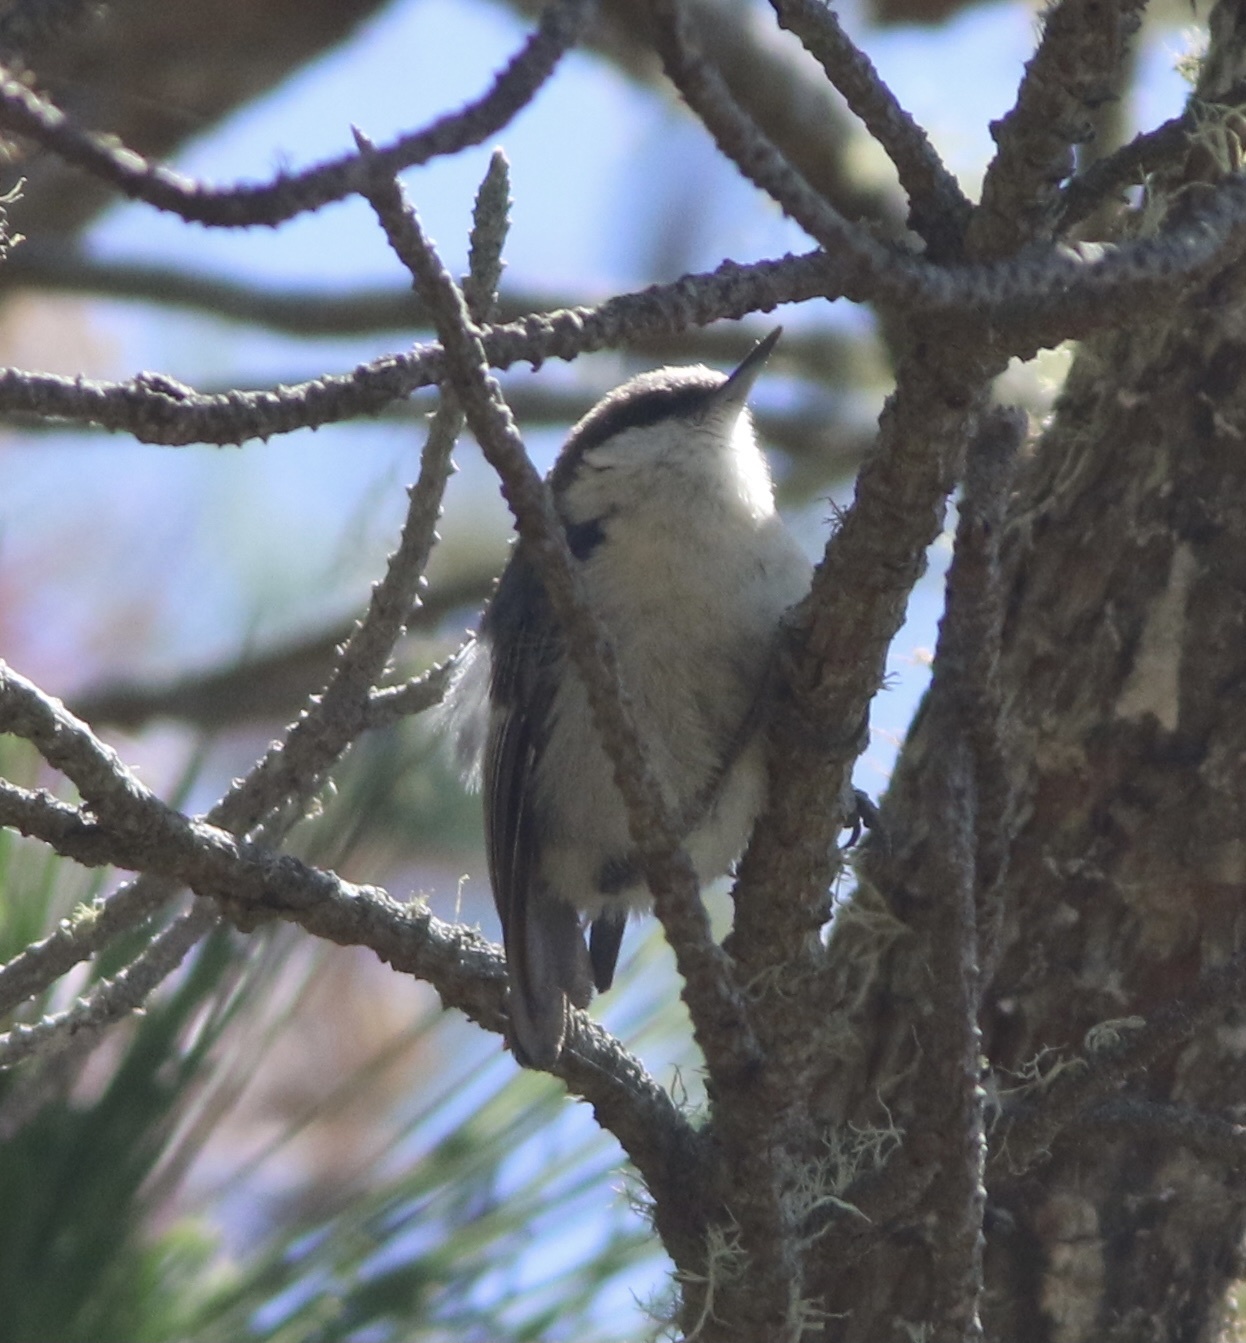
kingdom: Animalia
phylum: Chordata
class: Aves
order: Passeriformes
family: Sittidae
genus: Sitta
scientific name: Sitta pygmaea
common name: Pygmy nuthatch
